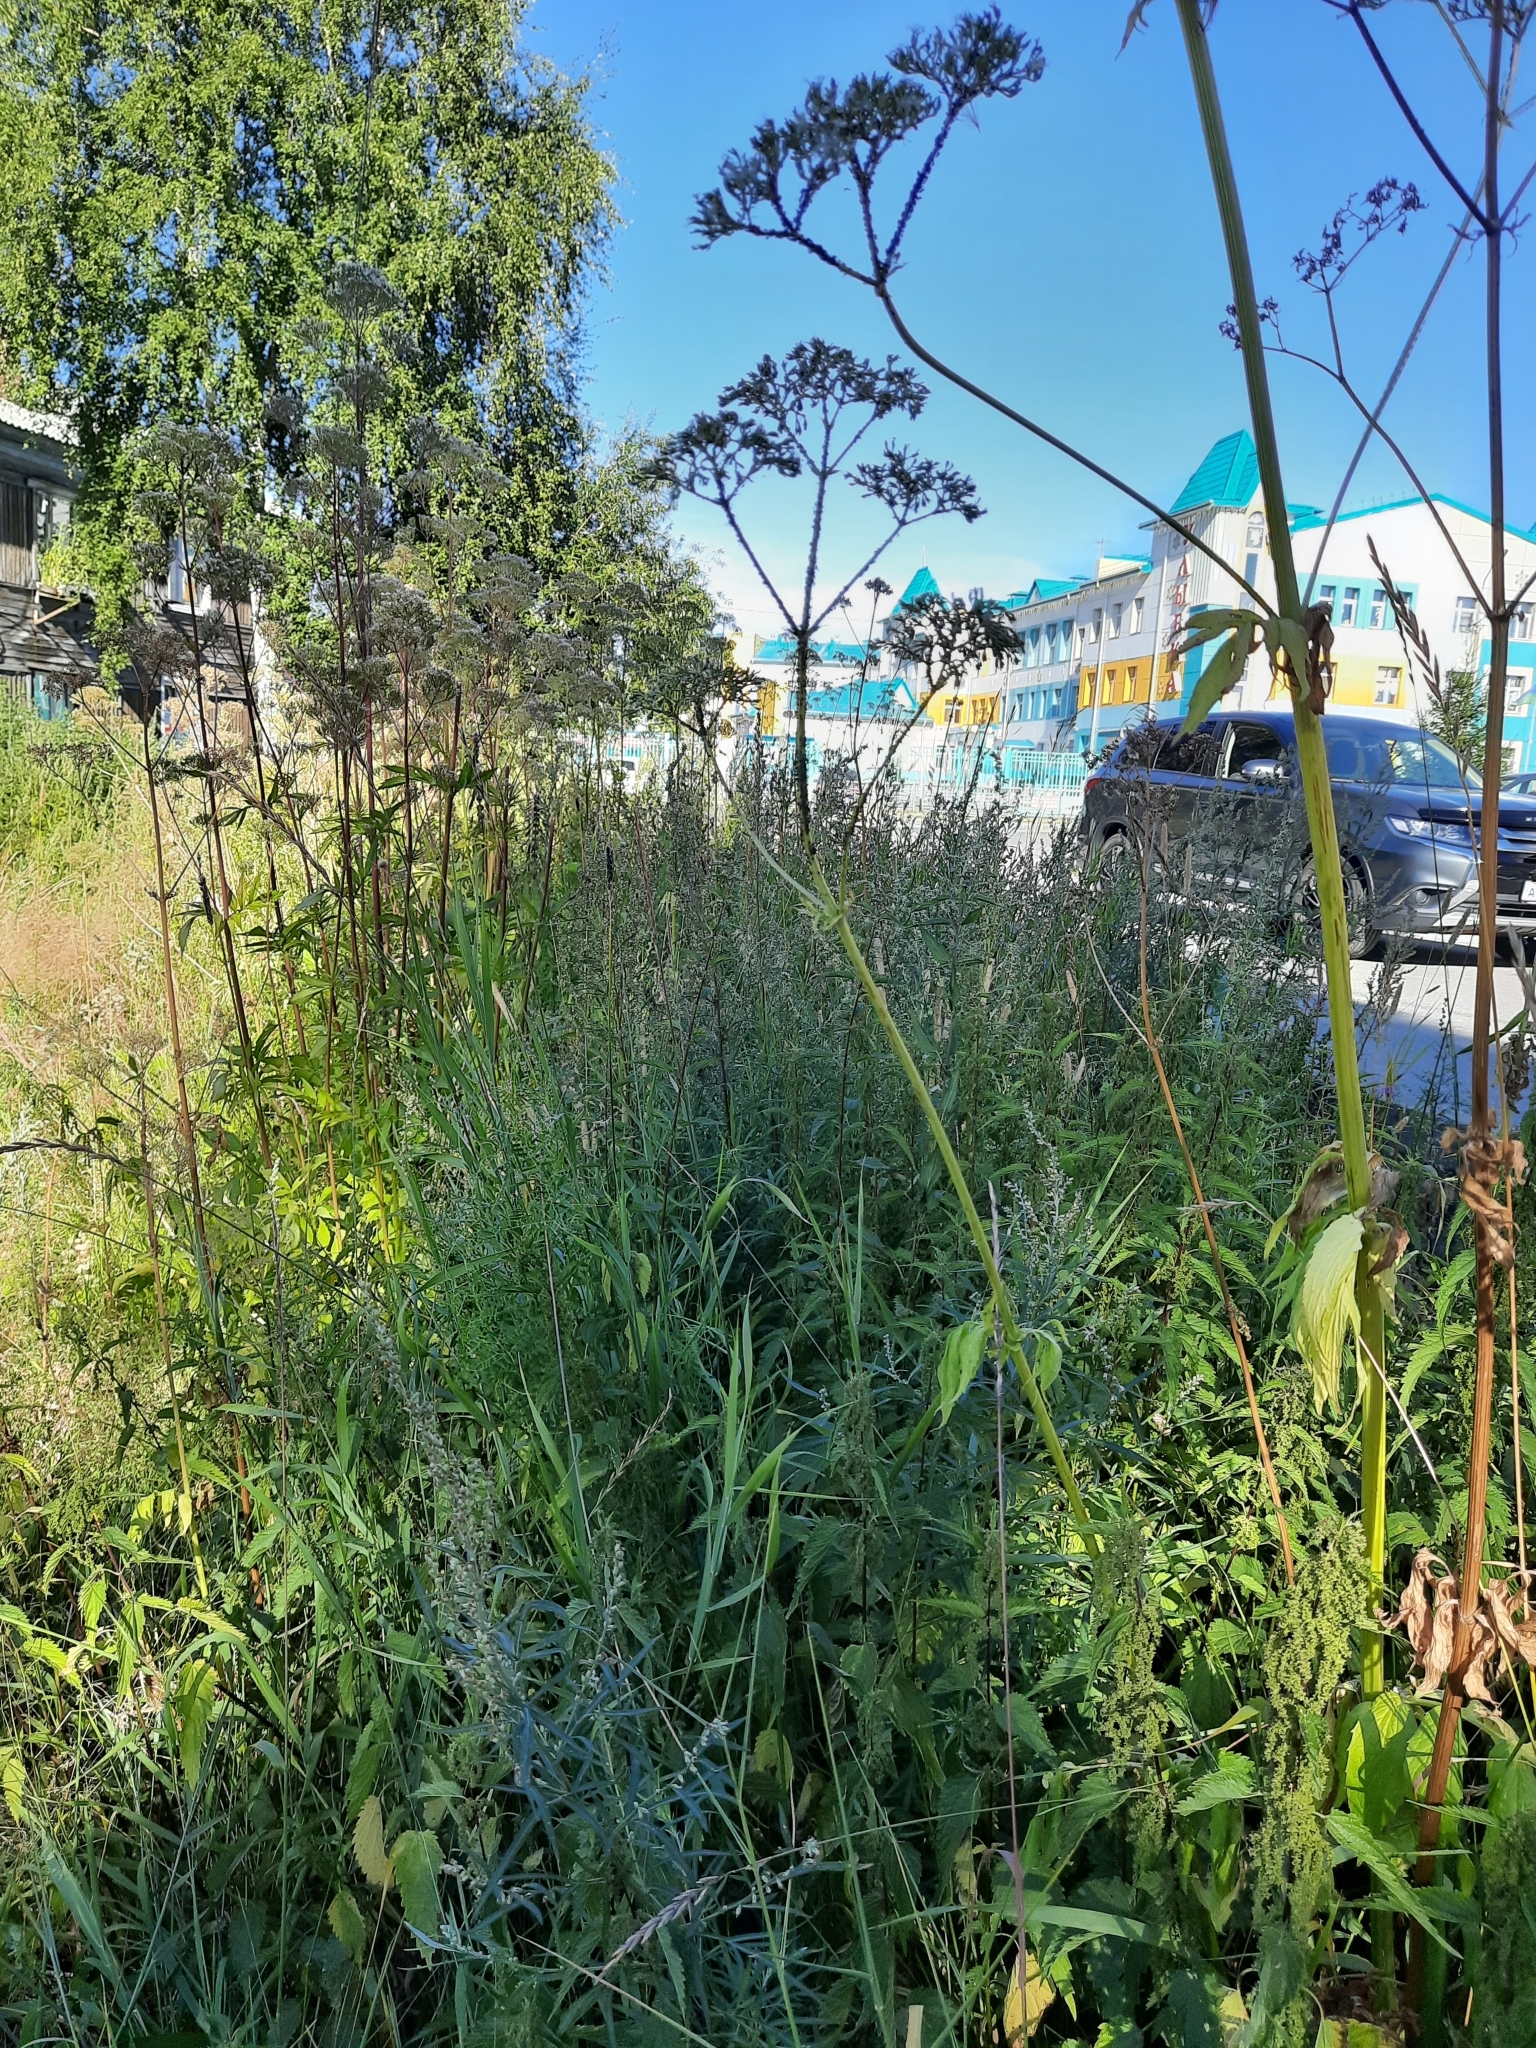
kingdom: Plantae
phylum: Tracheophyta
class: Magnoliopsida
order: Dipsacales
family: Caprifoliaceae
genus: Valeriana
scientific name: Valeriana wolgensis
